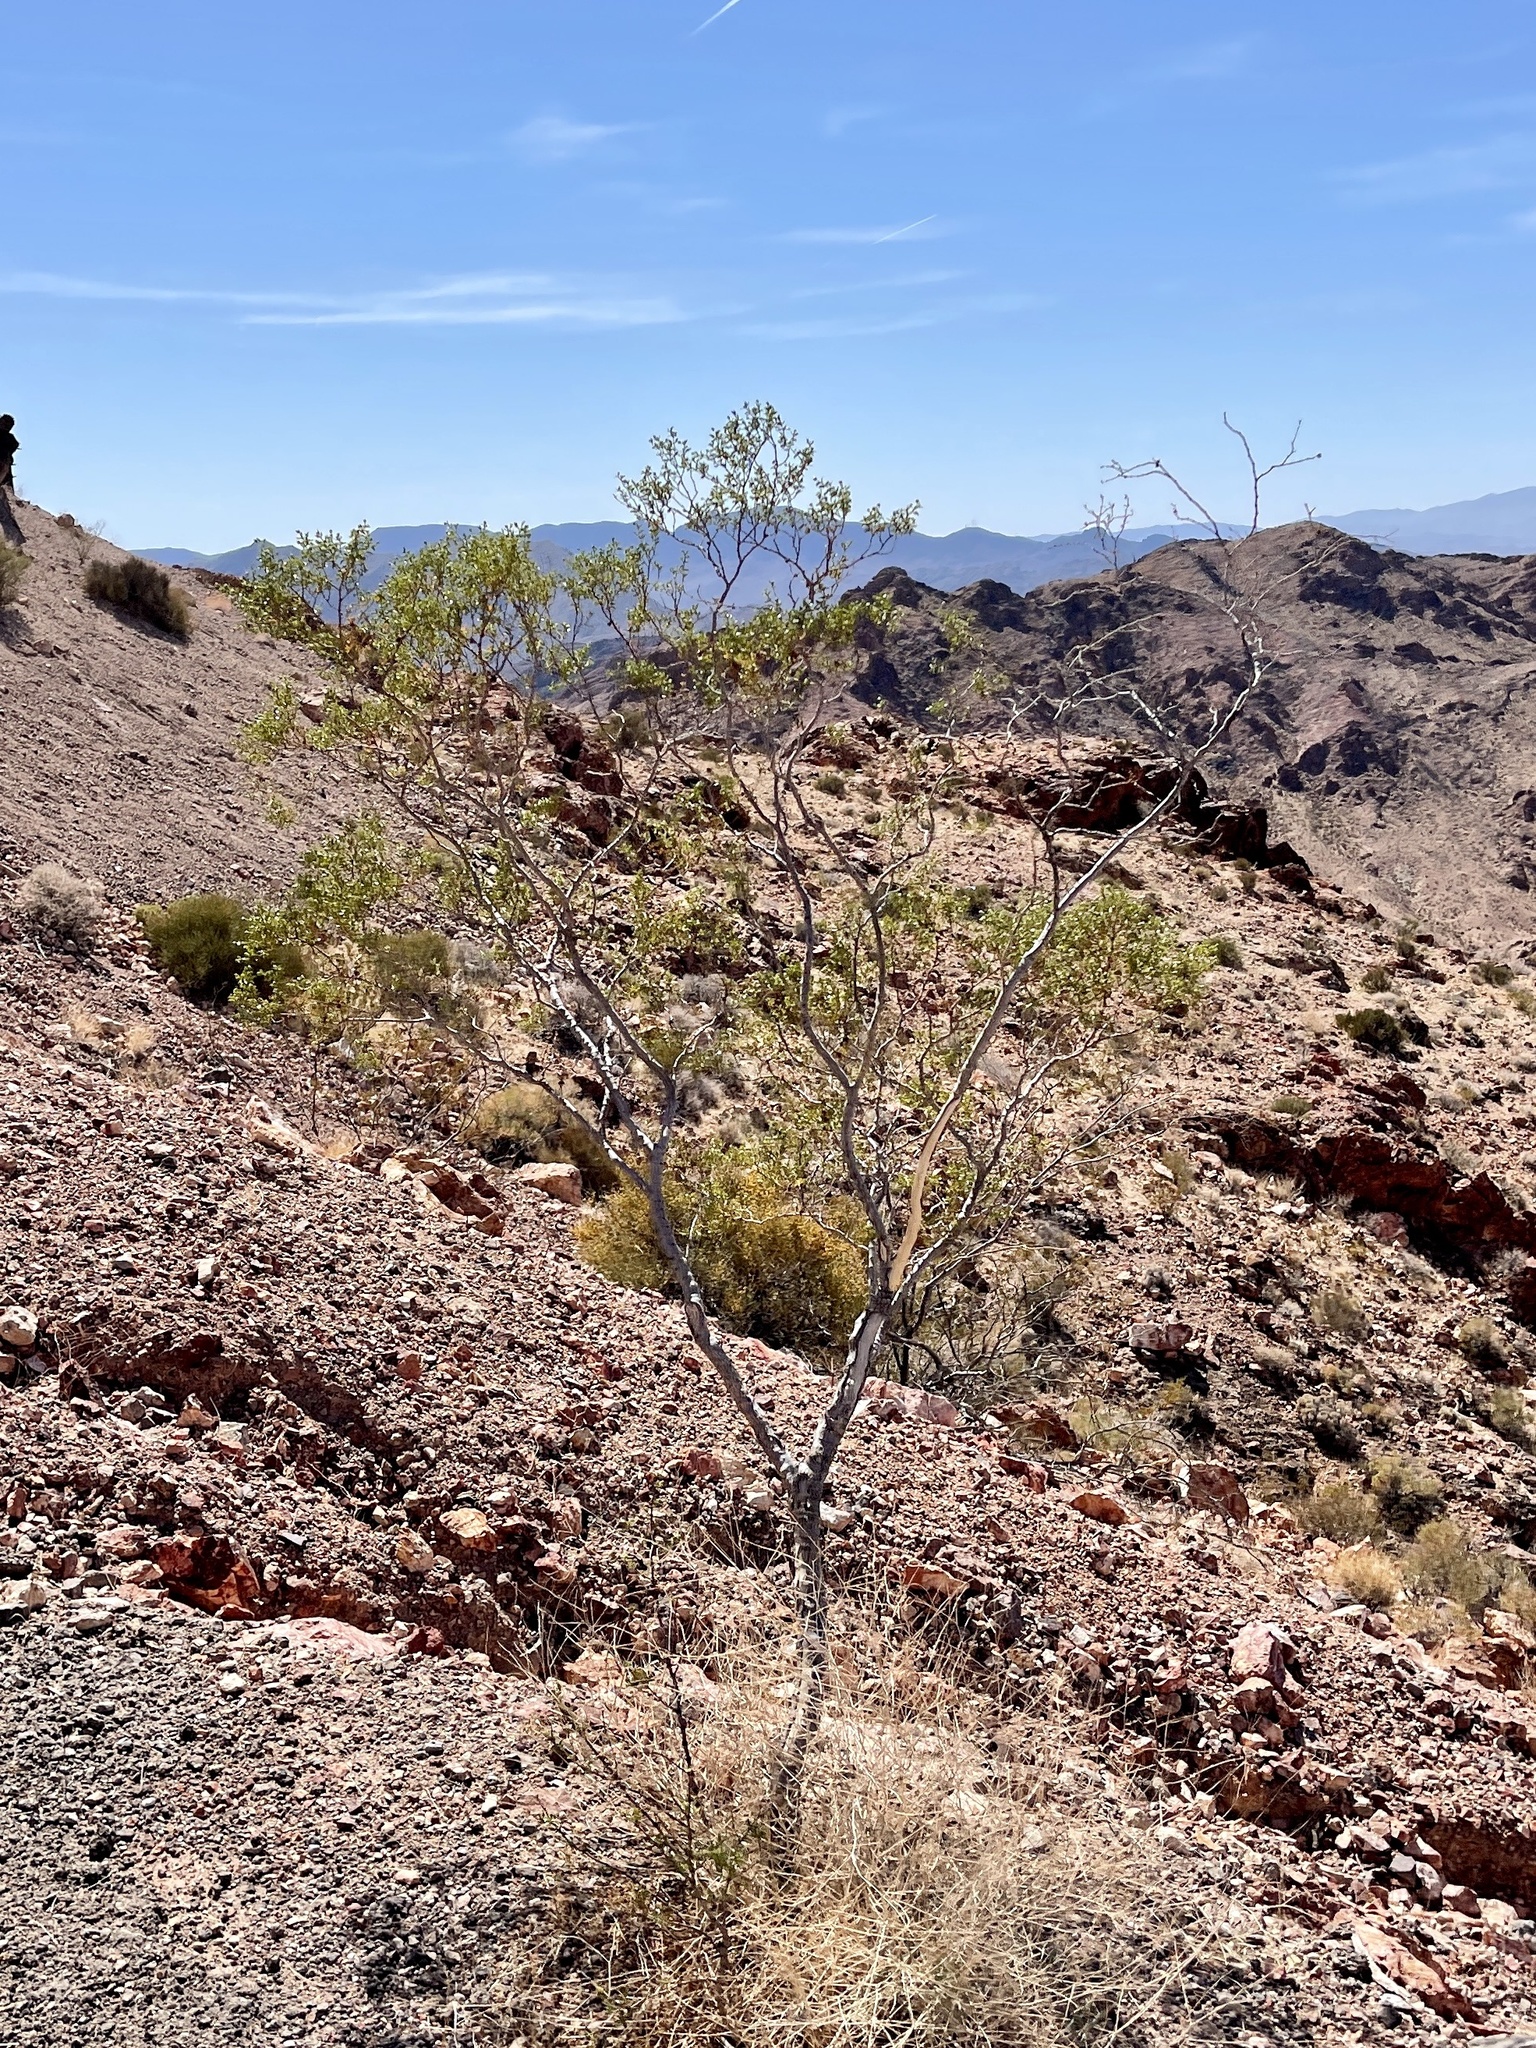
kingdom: Plantae
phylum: Tracheophyta
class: Magnoliopsida
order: Zygophyllales
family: Zygophyllaceae
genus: Larrea
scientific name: Larrea tridentata
